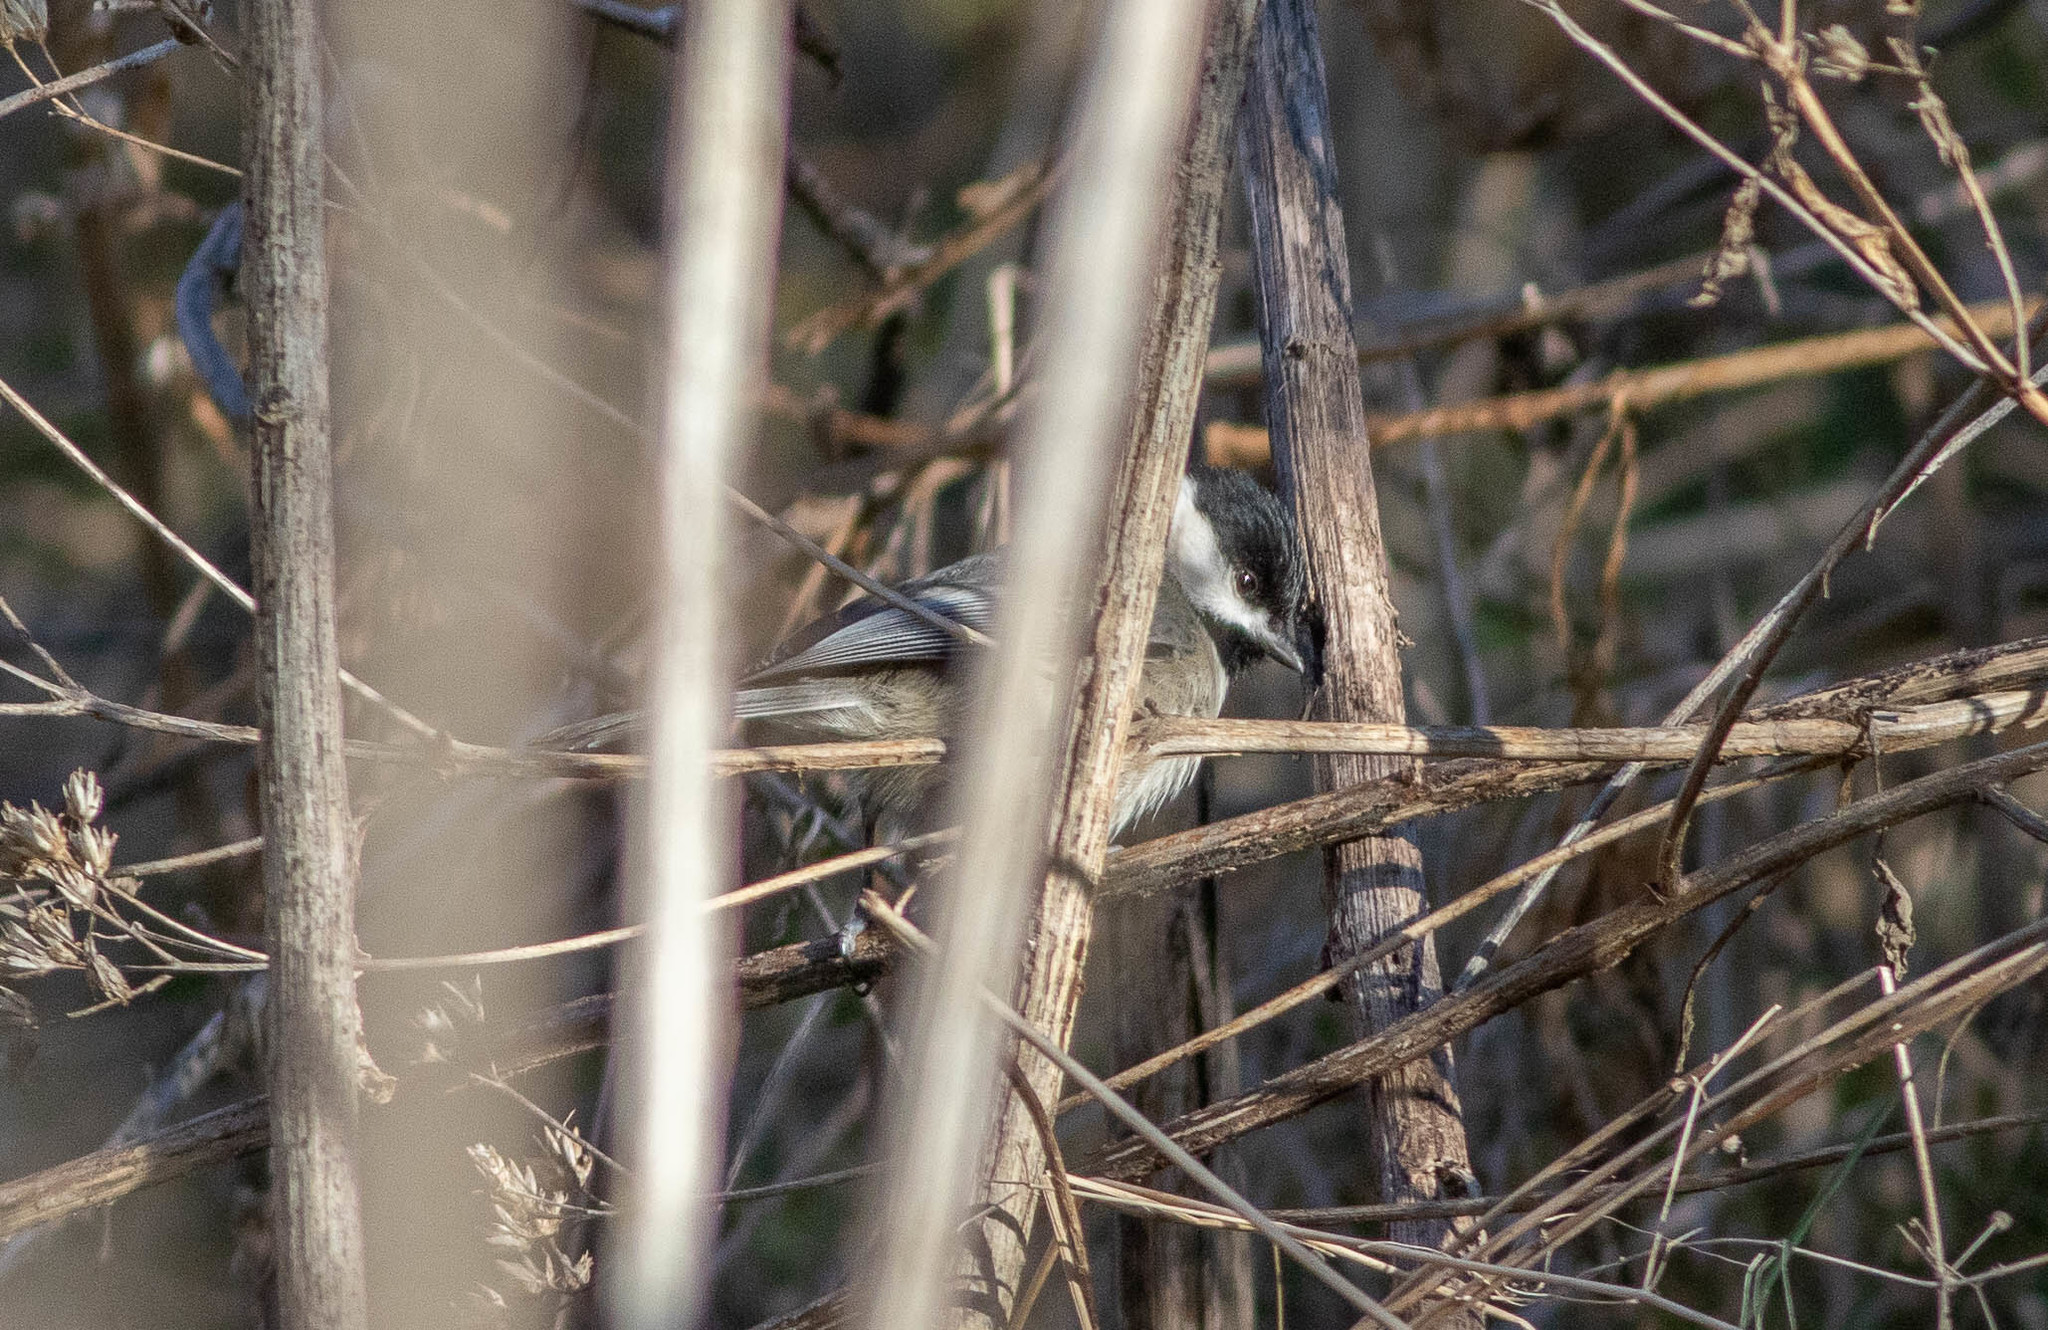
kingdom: Animalia
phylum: Chordata
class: Aves
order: Passeriformes
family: Paridae
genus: Poecile
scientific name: Poecile carolinensis
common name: Carolina chickadee
